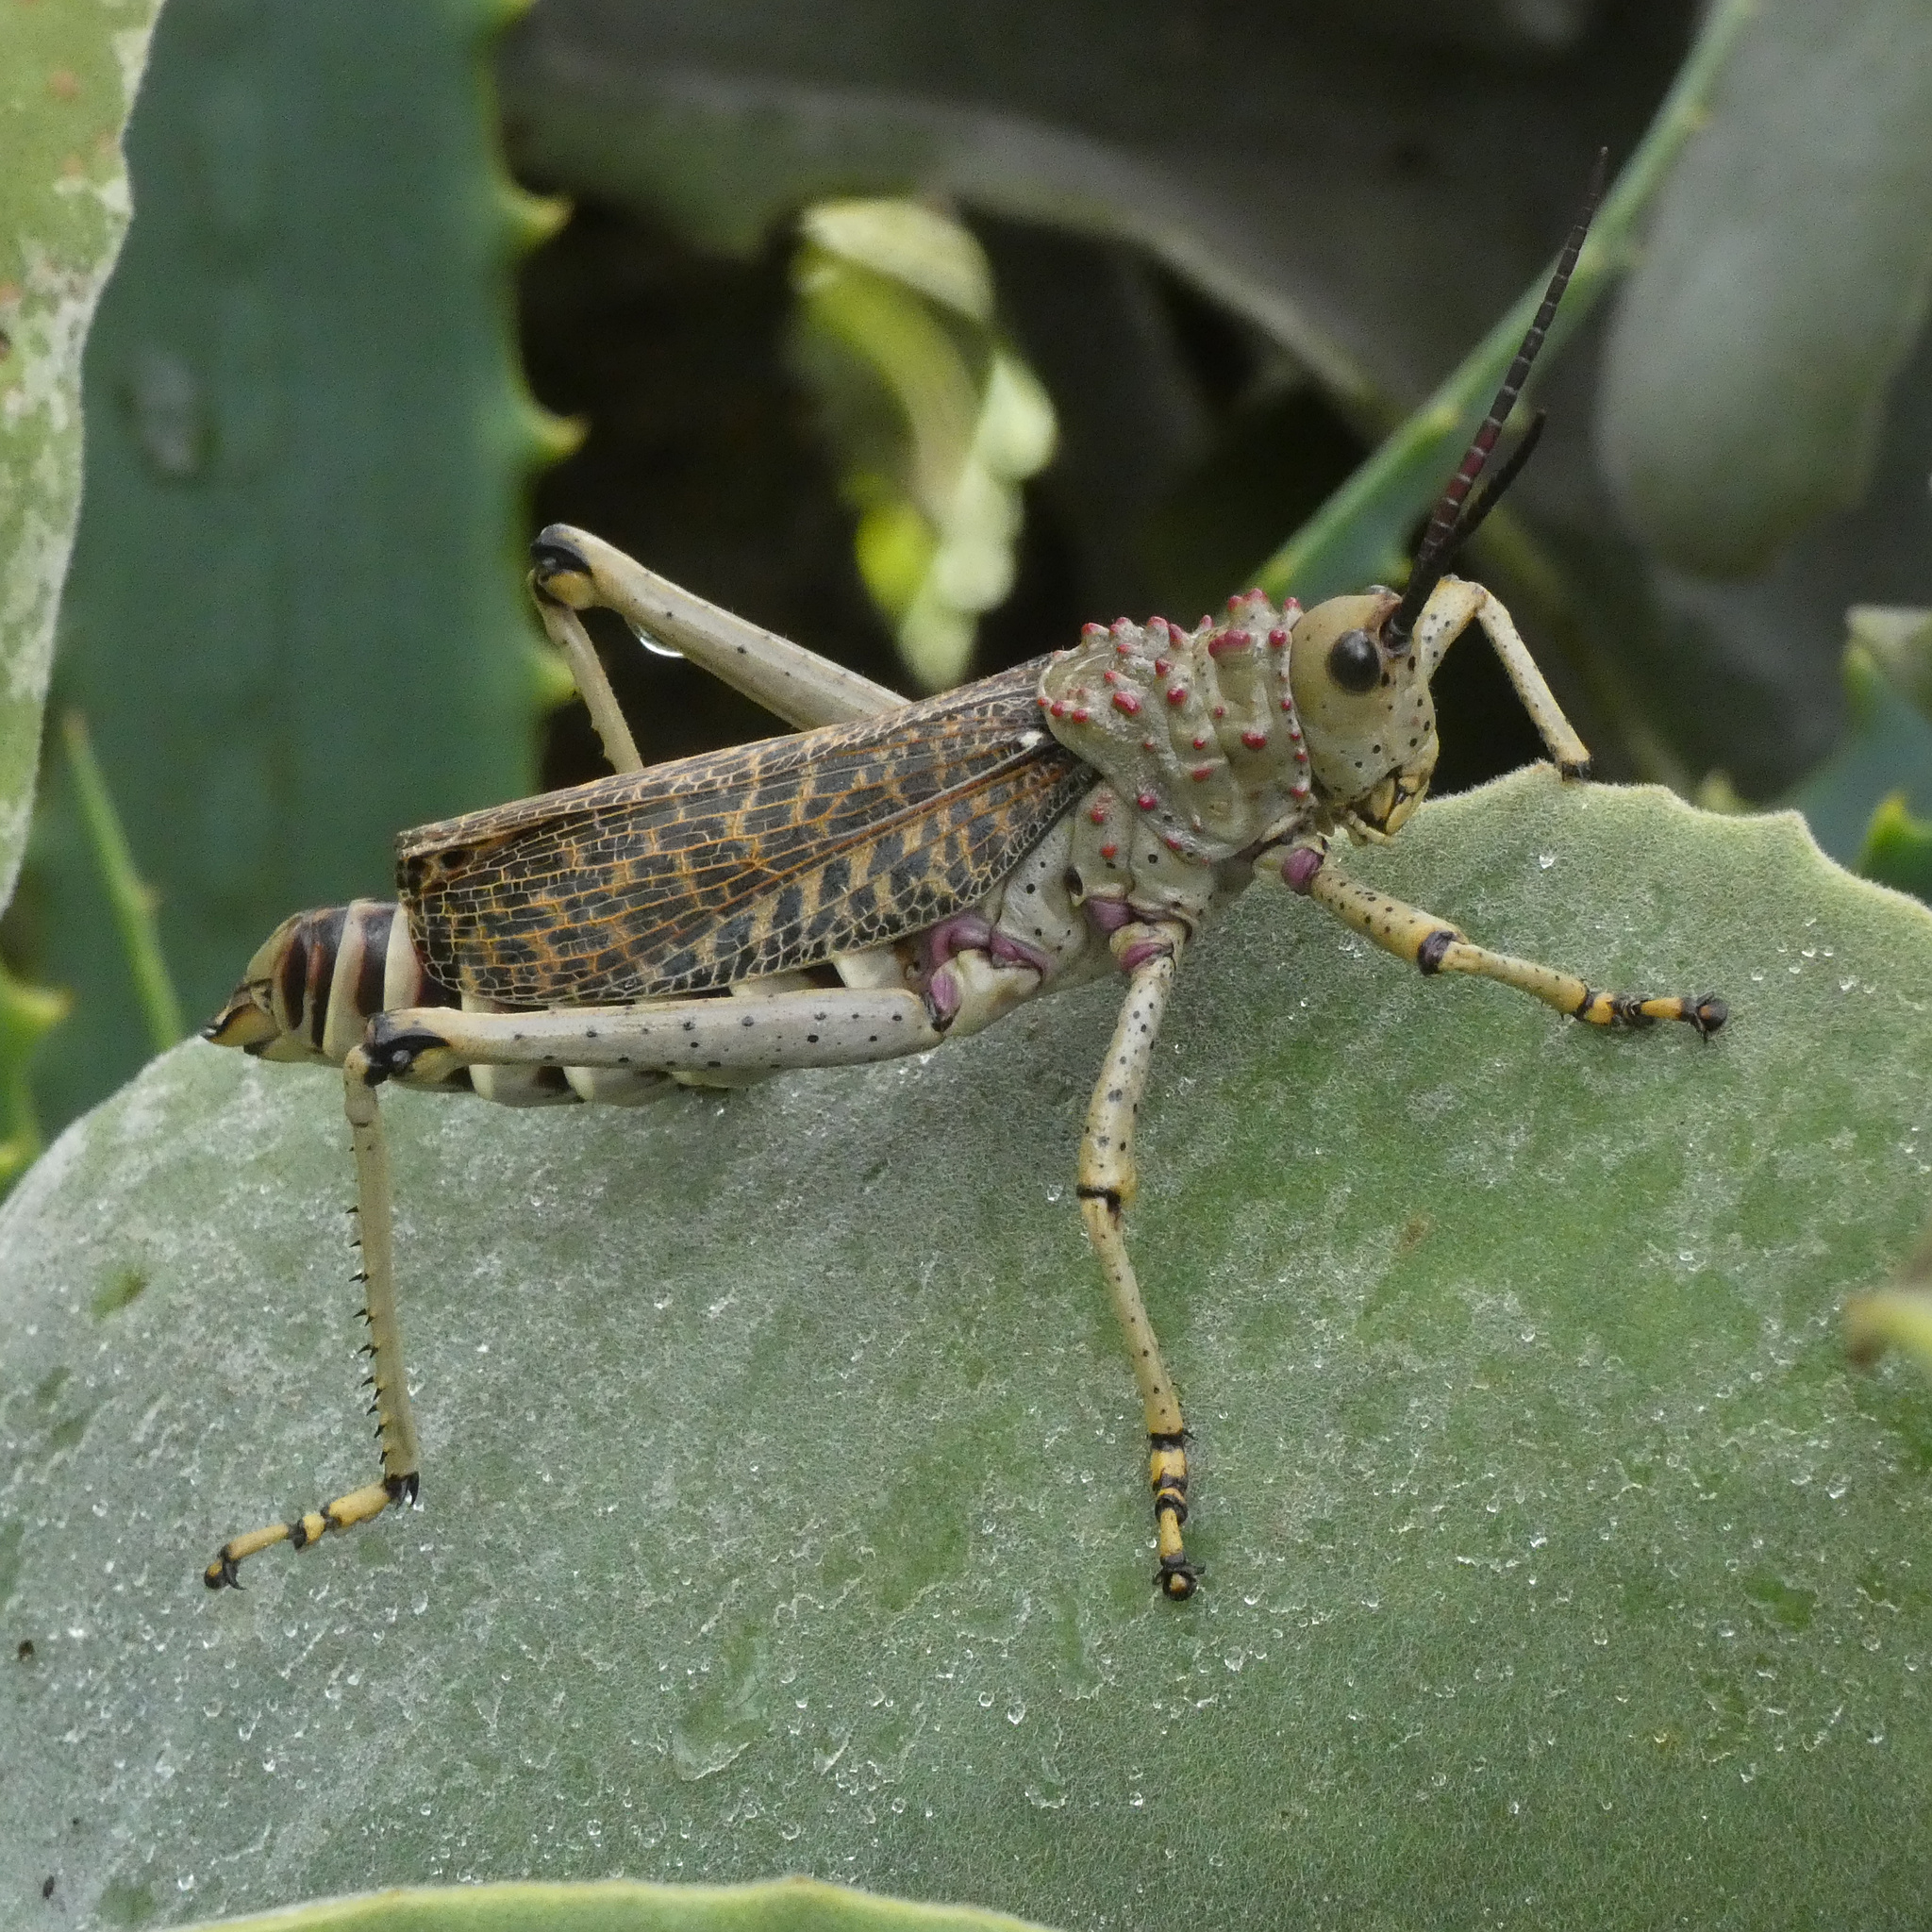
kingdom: Animalia
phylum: Arthropoda
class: Insecta
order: Orthoptera
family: Pyrgomorphidae
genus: Phymateus
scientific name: Phymateus baccatus
